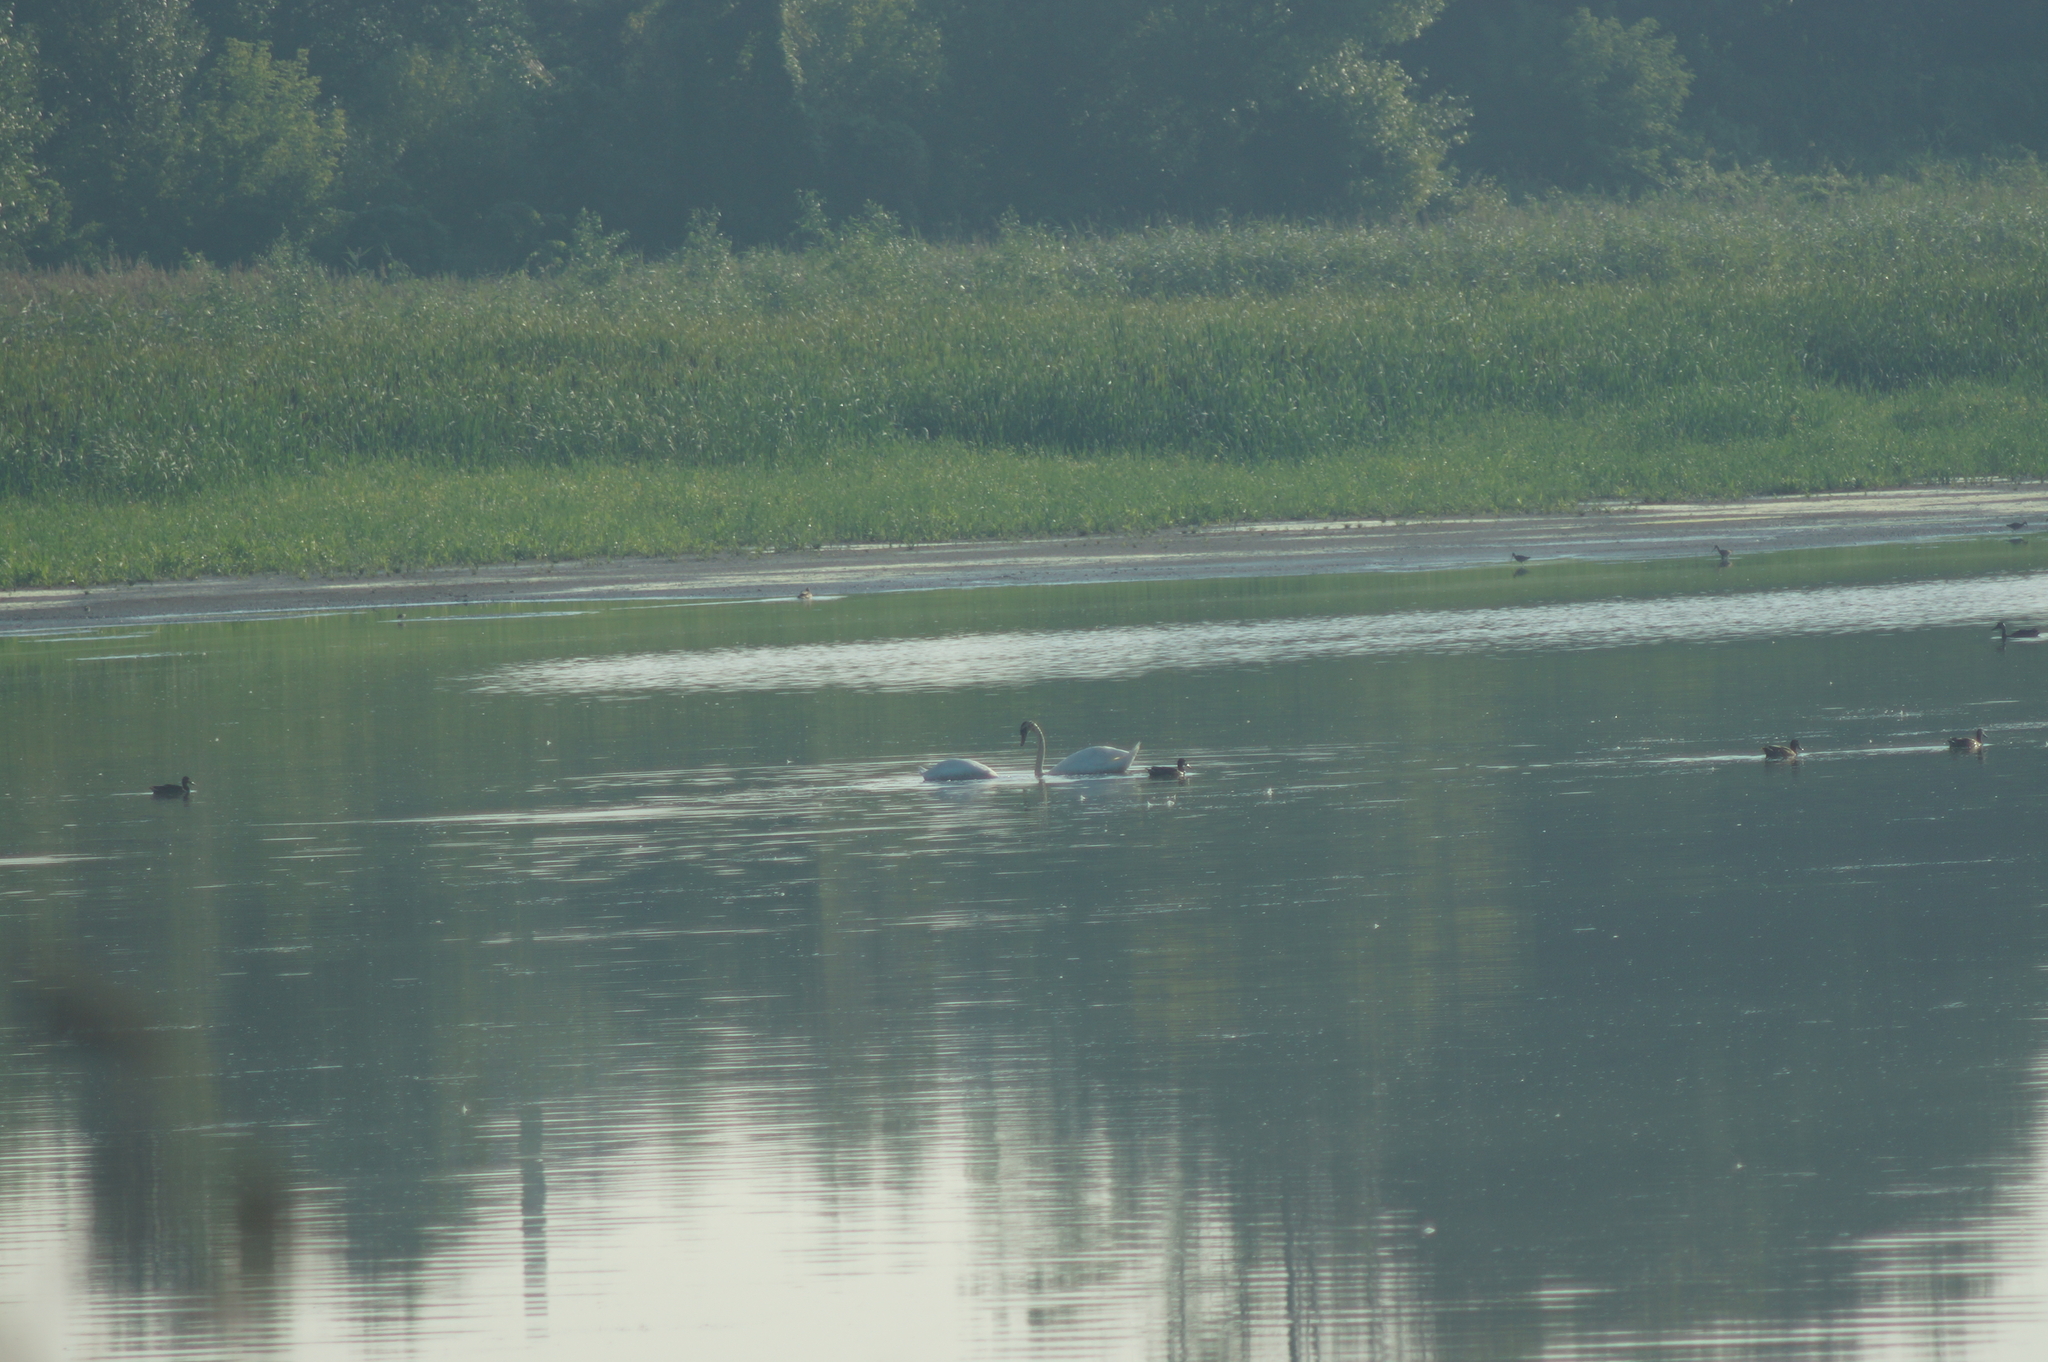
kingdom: Animalia
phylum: Chordata
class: Aves
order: Anseriformes
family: Anatidae
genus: Cygnus
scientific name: Cygnus olor
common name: Mute swan
